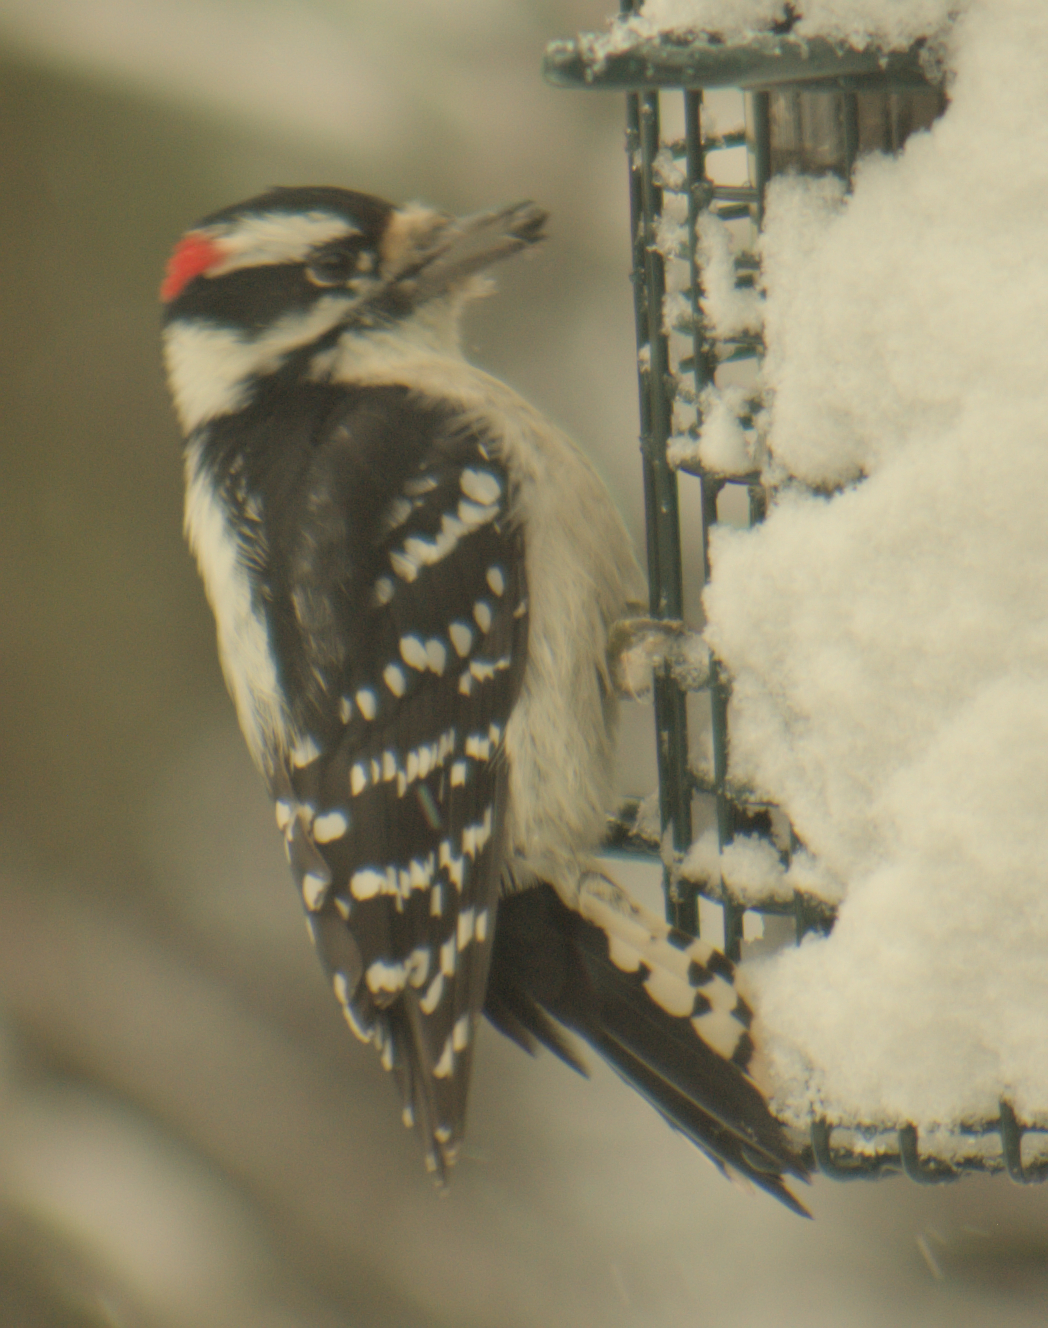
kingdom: Animalia
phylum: Chordata
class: Aves
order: Piciformes
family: Picidae
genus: Dryobates
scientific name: Dryobates pubescens
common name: Downy woodpecker
